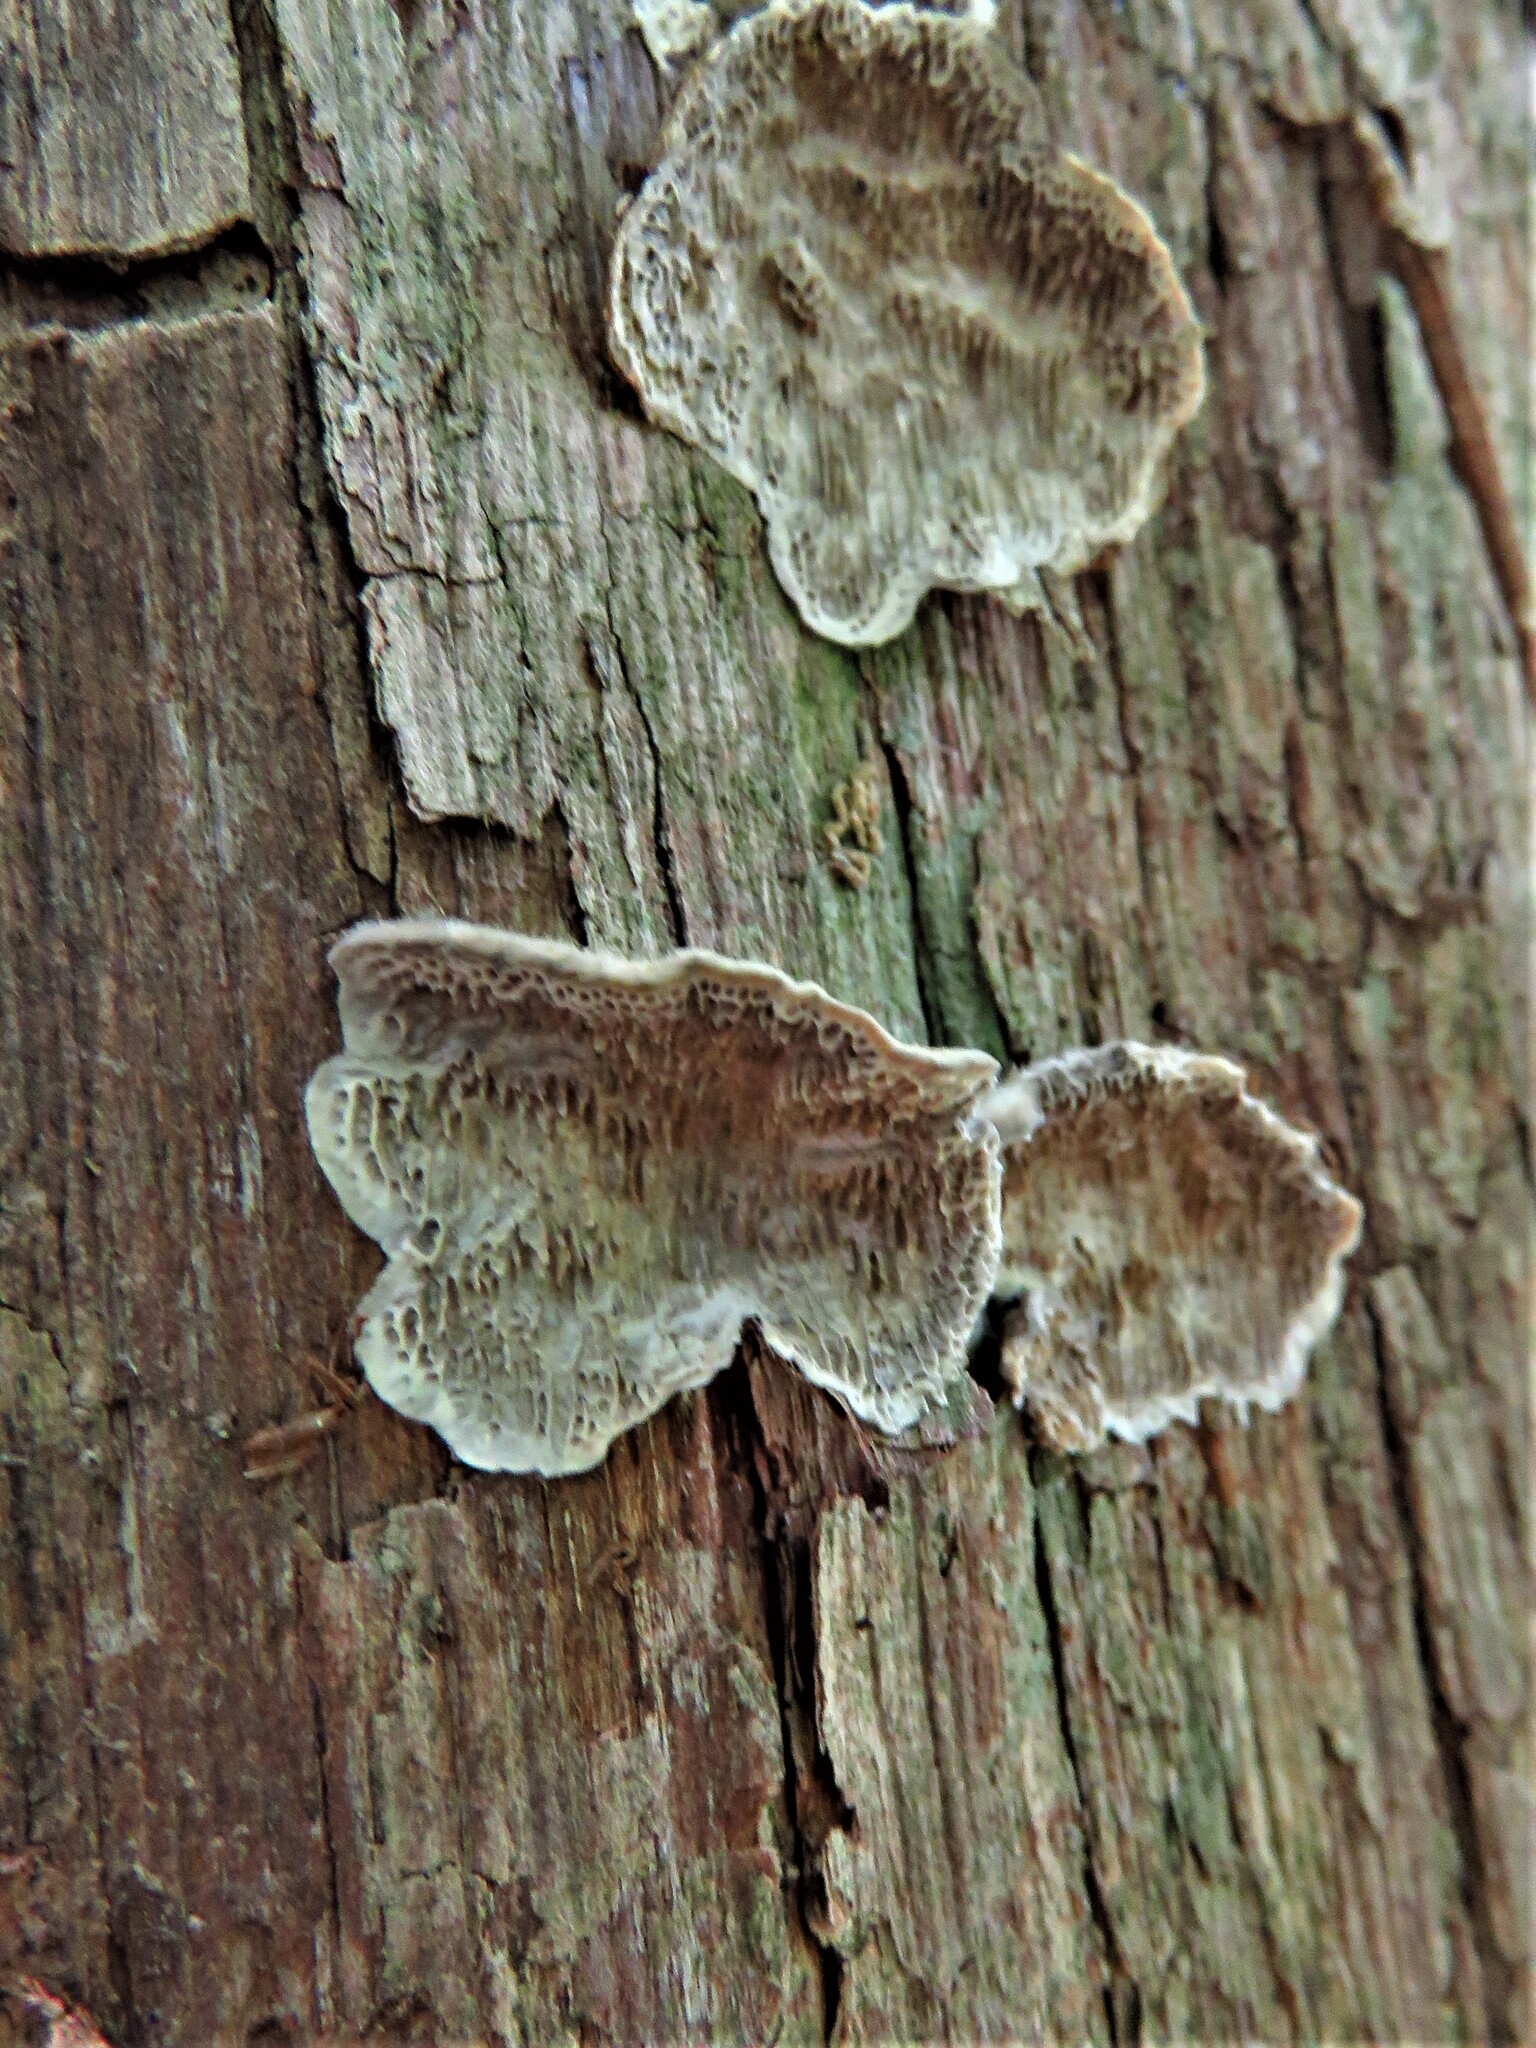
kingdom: Fungi
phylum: Basidiomycota
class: Agaricomycetes
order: Polyporales
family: Polyporaceae
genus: Trametes
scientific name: Trametes villosa
